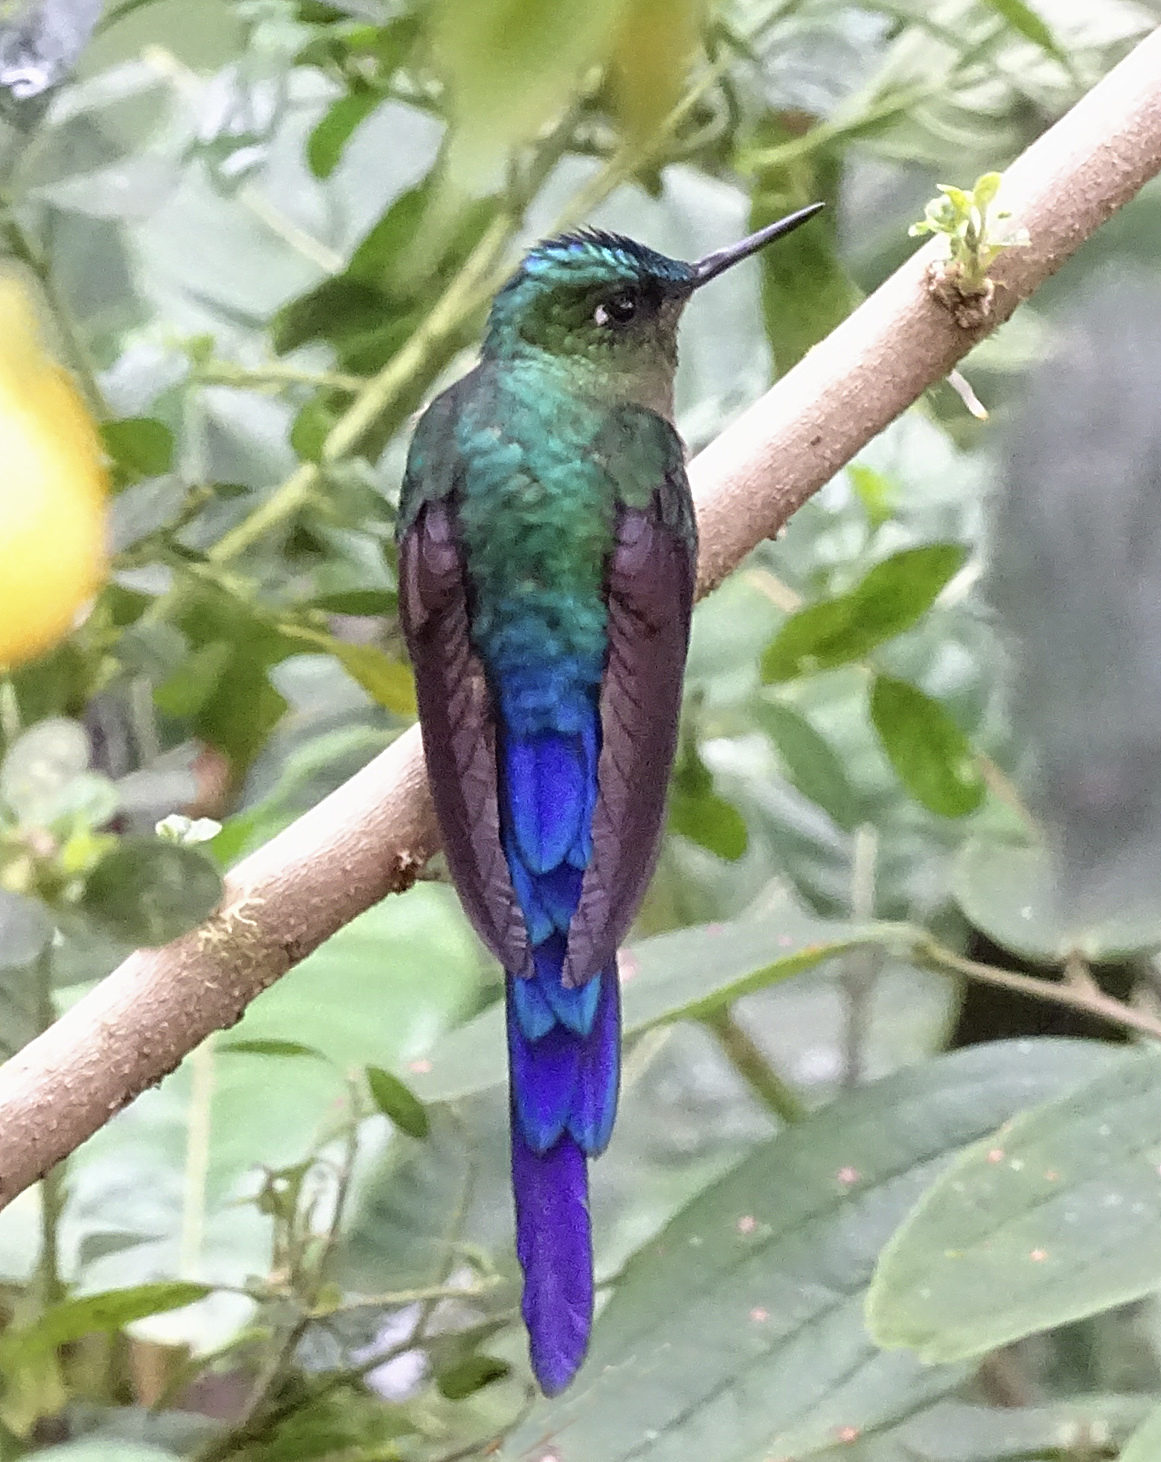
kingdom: Animalia
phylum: Chordata
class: Aves
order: Apodiformes
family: Trochilidae
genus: Aglaiocercus
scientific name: Aglaiocercus coelestis
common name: Violet-tailed sylph
